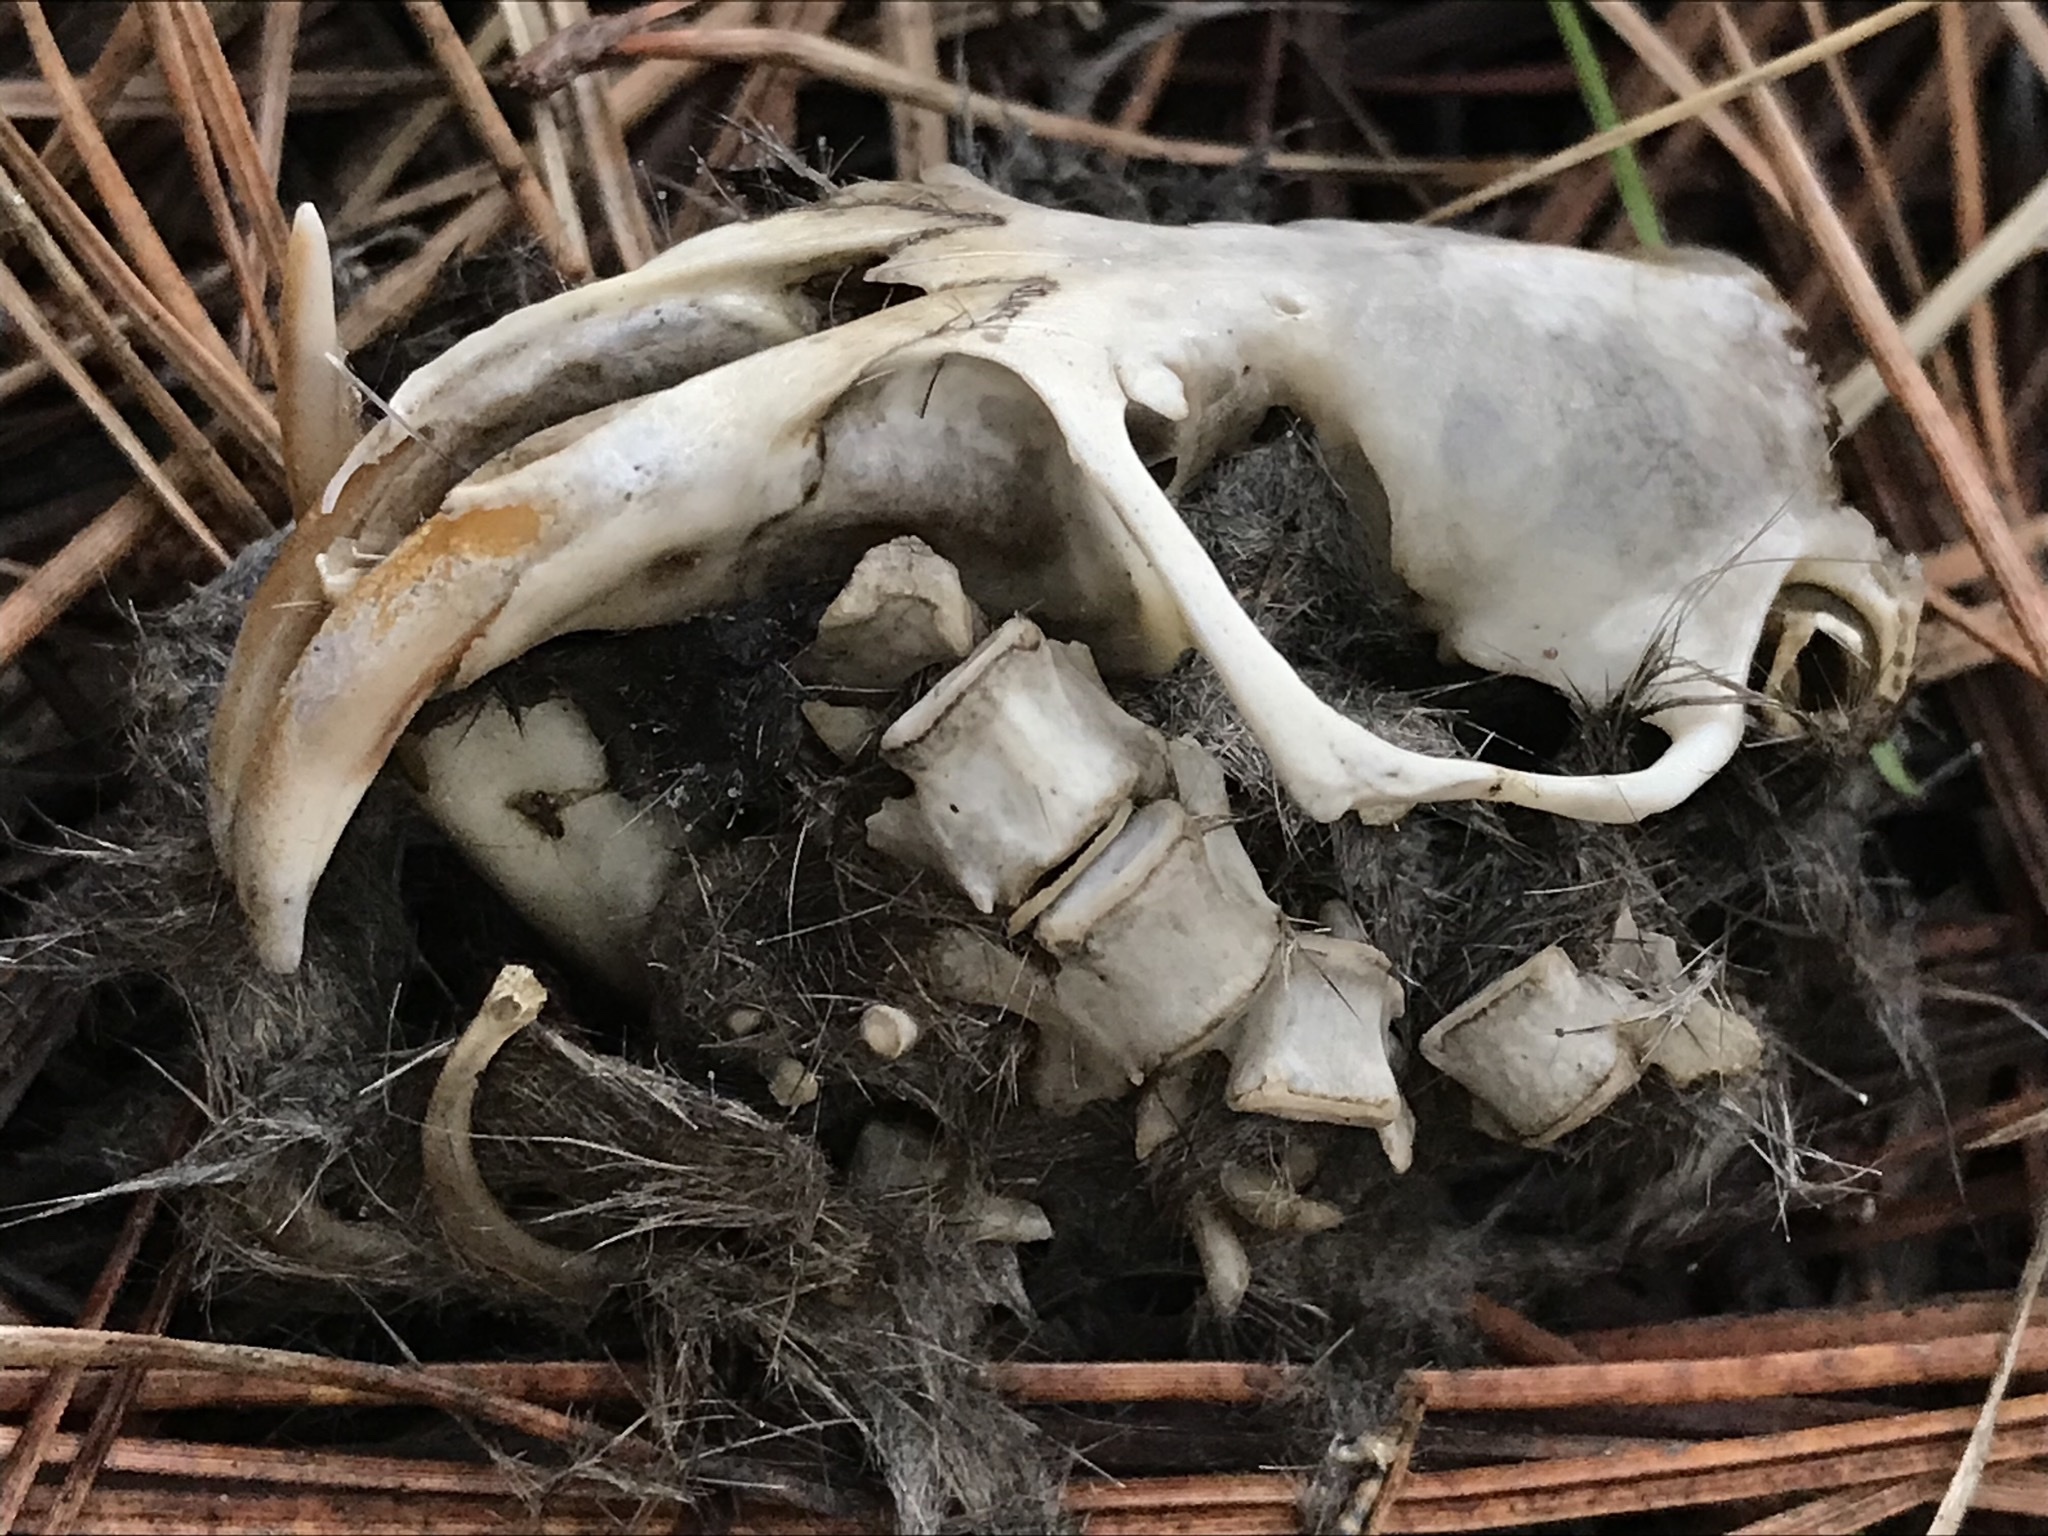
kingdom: Animalia
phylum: Chordata
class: Mammalia
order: Rodentia
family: Geomyidae
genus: Thomomys
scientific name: Thomomys bottae
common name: Botta's pocket gopher
